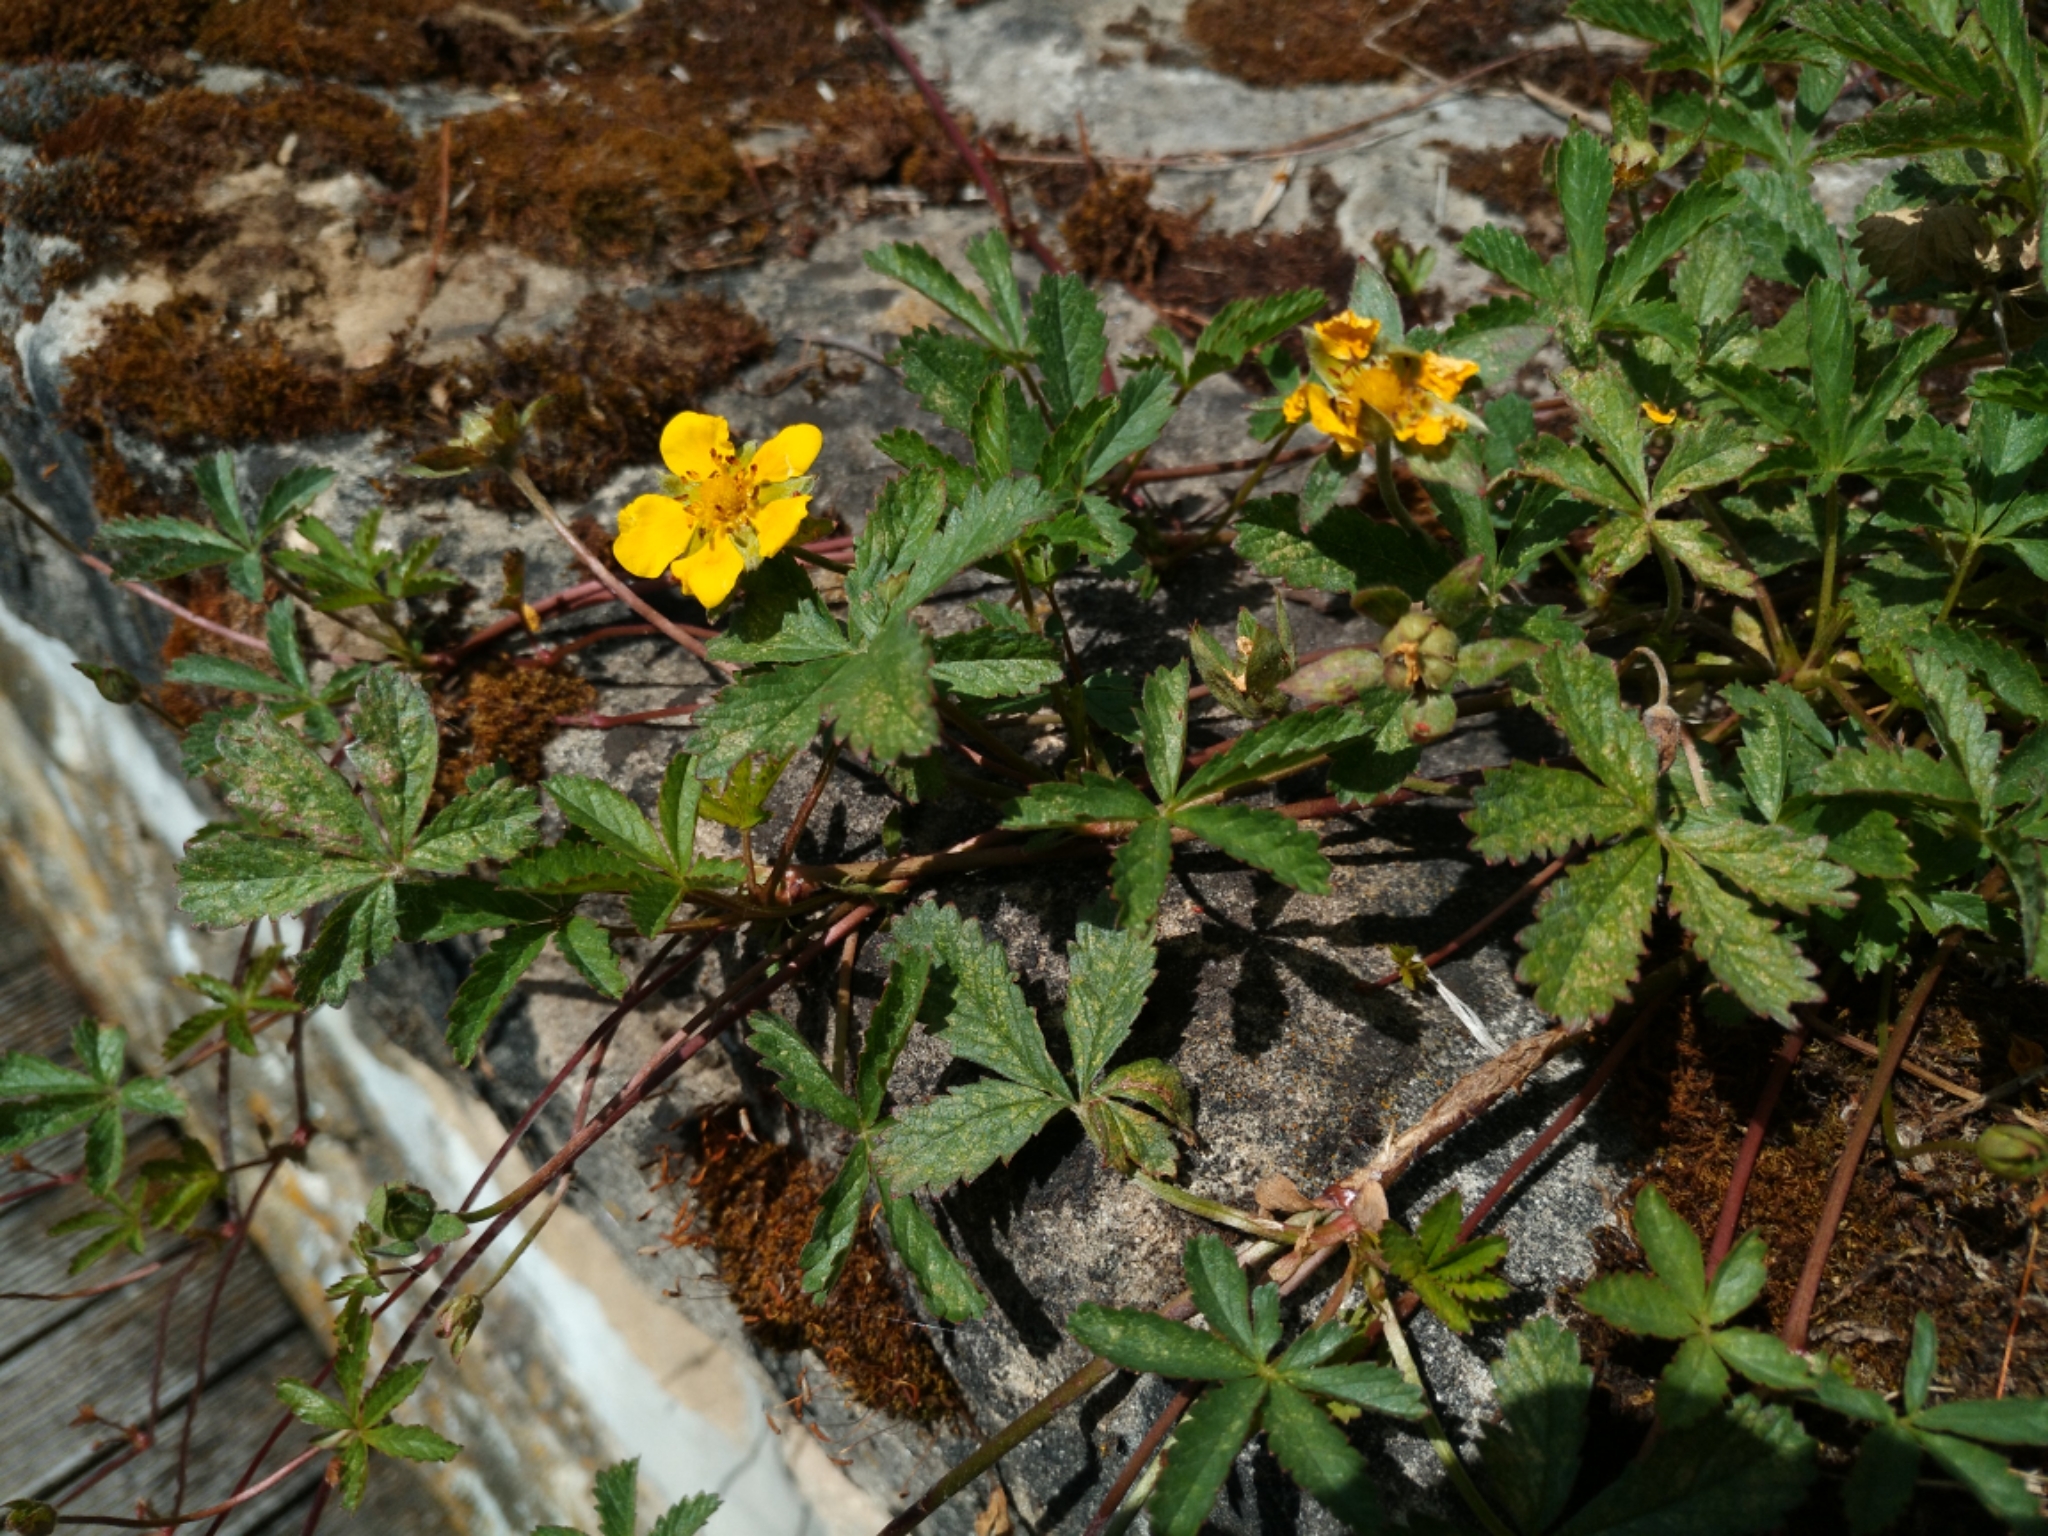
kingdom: Plantae
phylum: Tracheophyta
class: Magnoliopsida
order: Rosales
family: Rosaceae
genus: Potentilla
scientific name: Potentilla reptans
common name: Creeping cinquefoil
